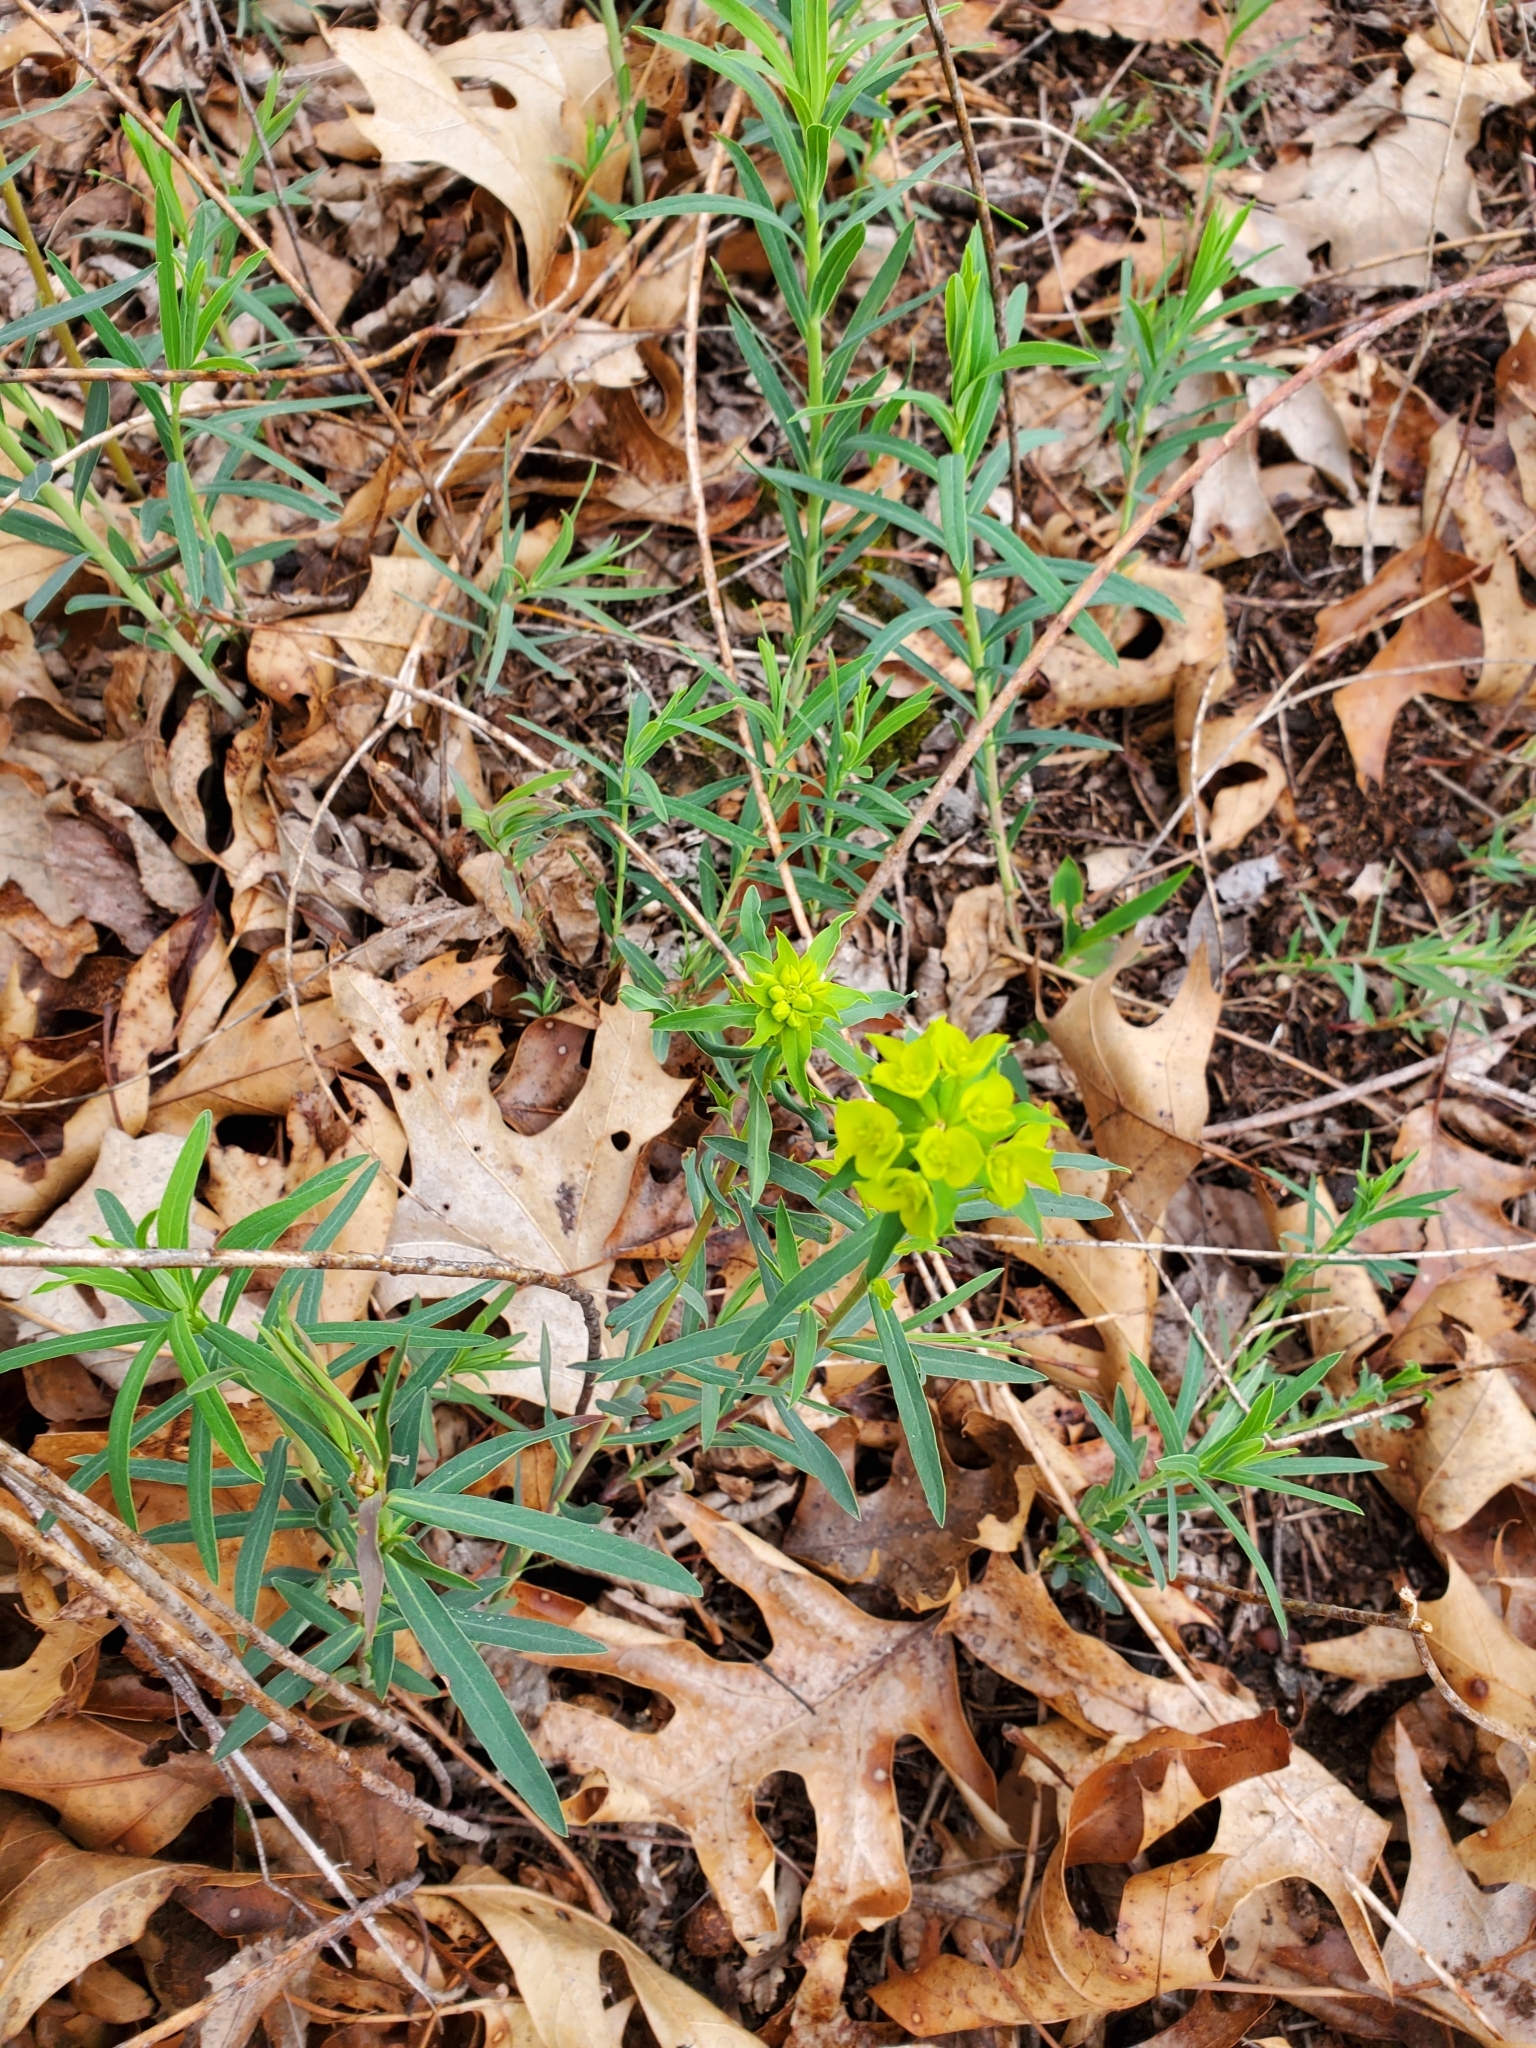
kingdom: Plantae
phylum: Tracheophyta
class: Magnoliopsida
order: Malpighiales
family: Euphorbiaceae
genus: Euphorbia
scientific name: Euphorbia virgata
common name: Leafy spurge
